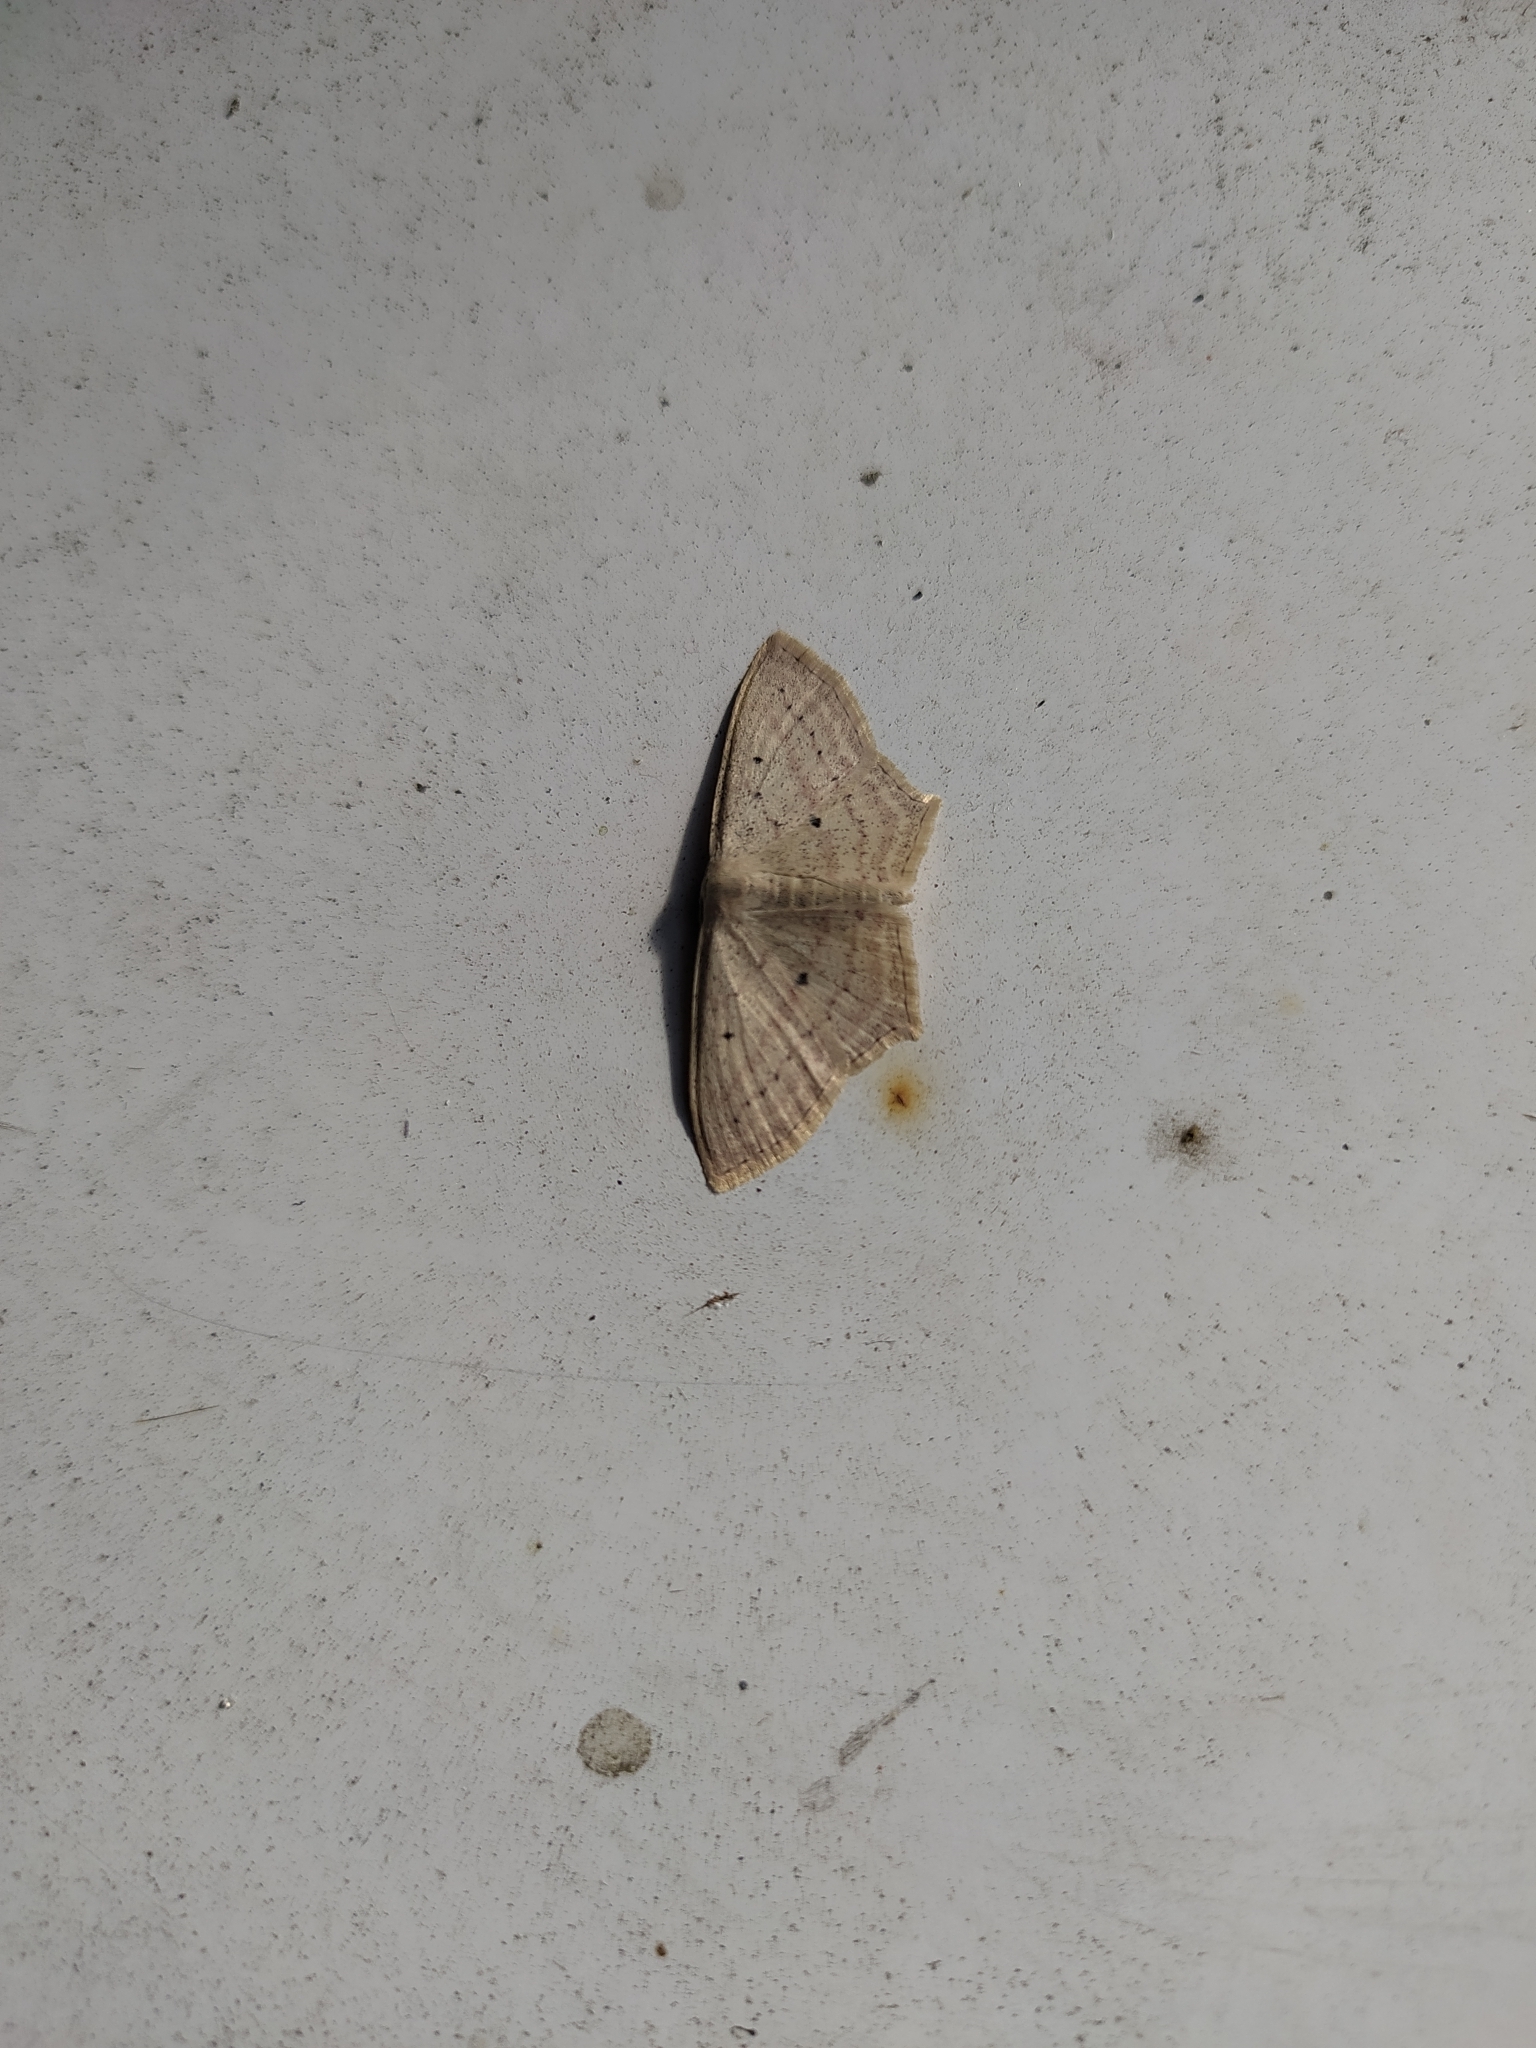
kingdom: Animalia
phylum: Arthropoda
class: Insecta
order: Lepidoptera
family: Geometridae
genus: Scopula
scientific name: Scopula flaccidaria
